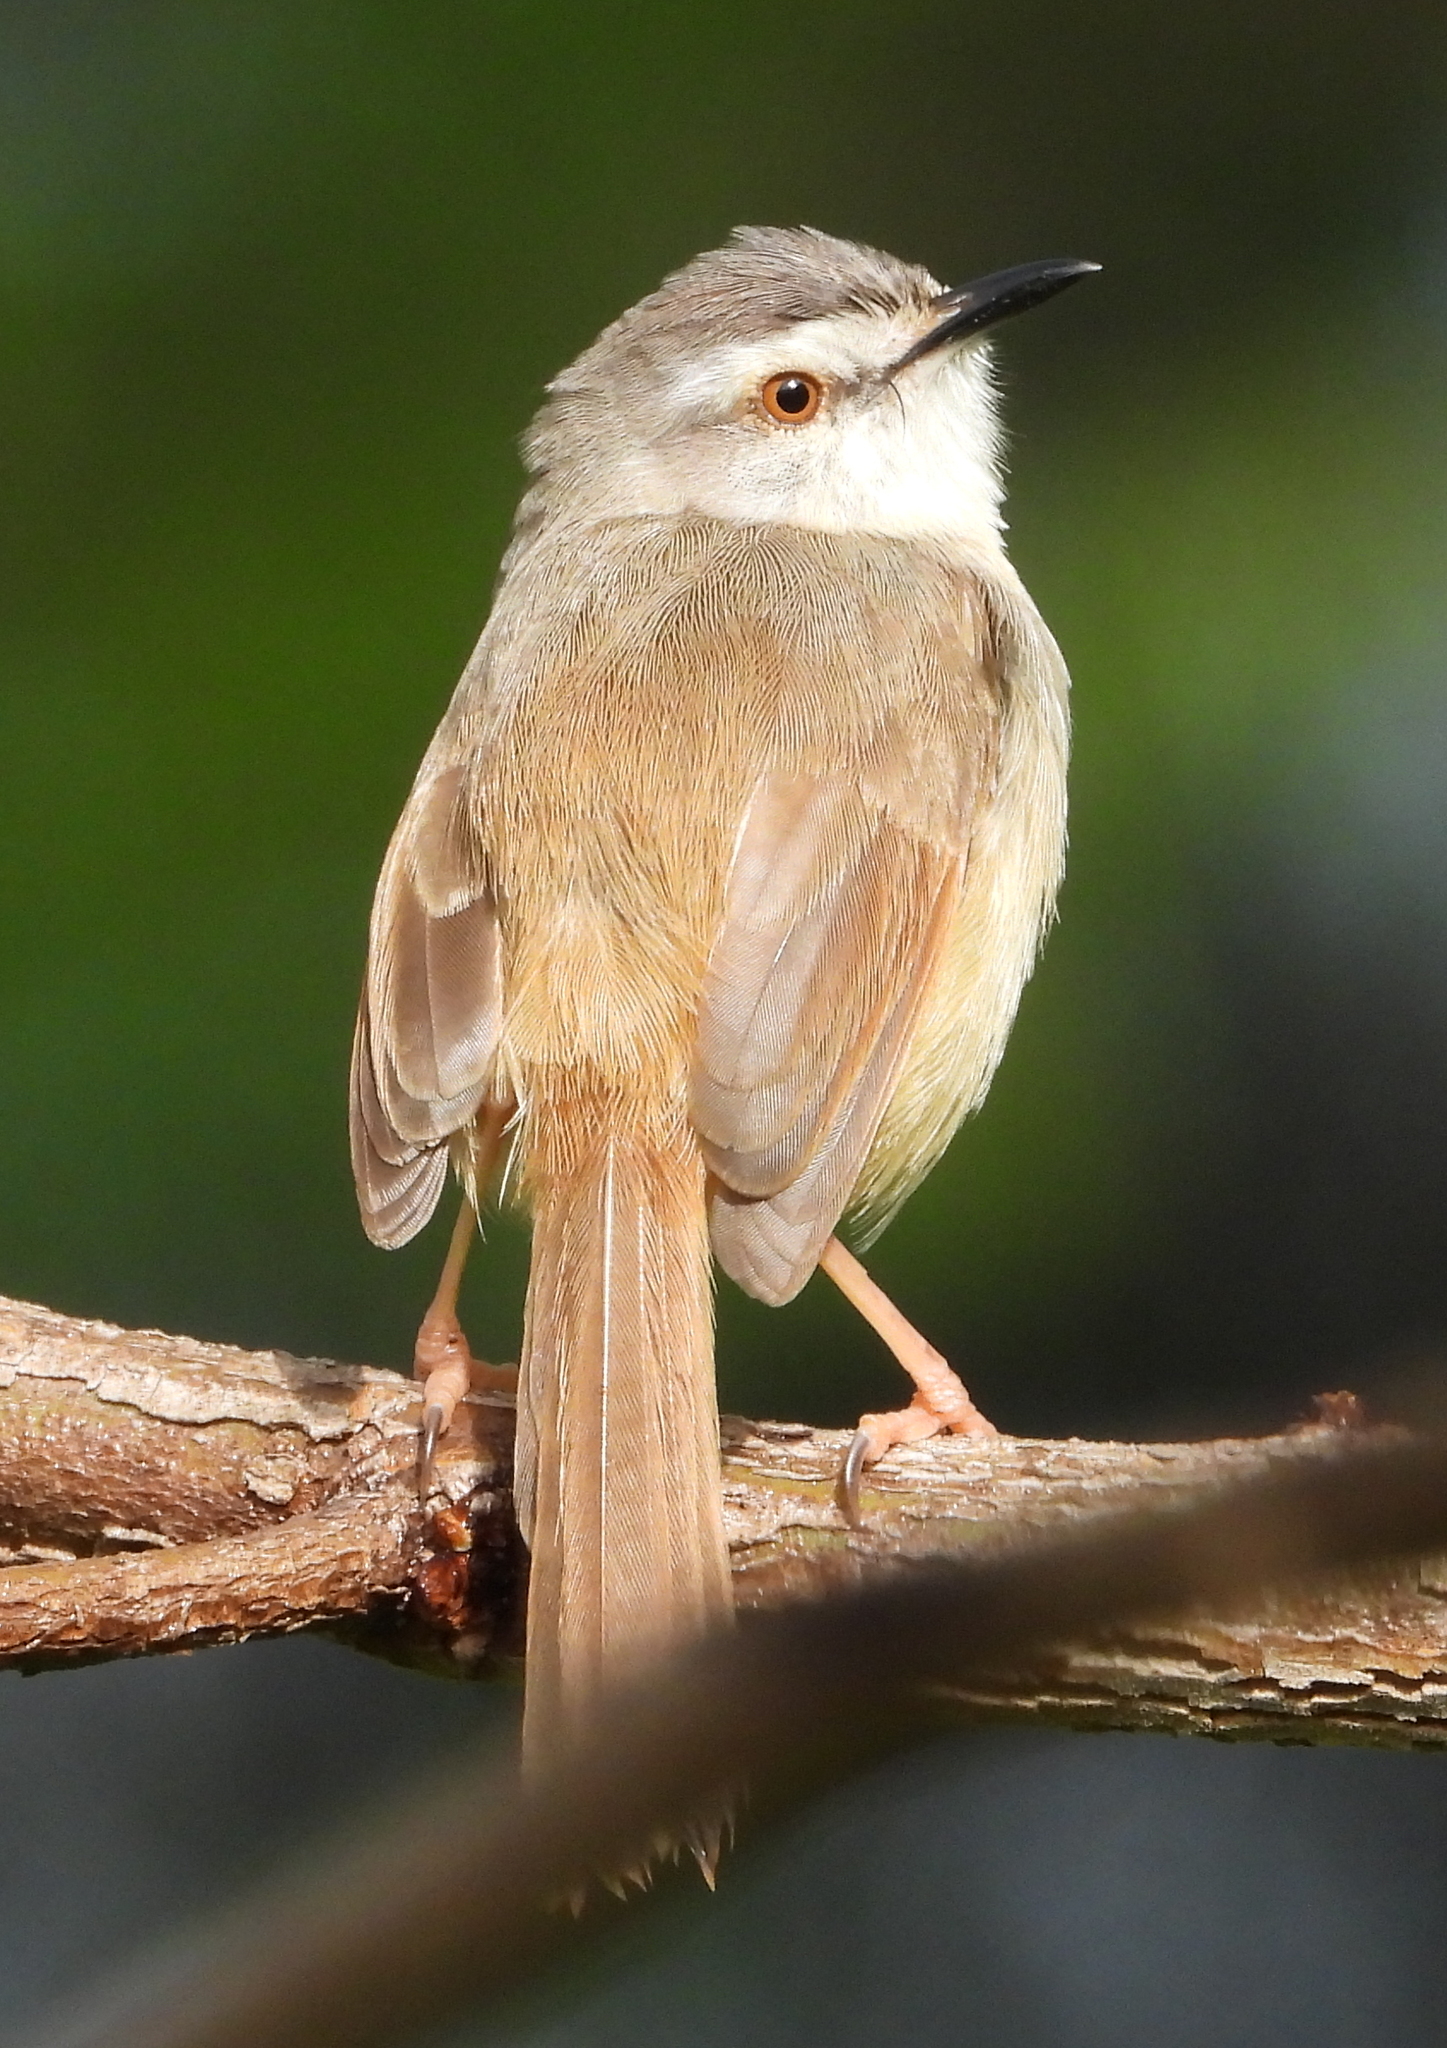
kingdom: Animalia
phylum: Chordata
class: Aves
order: Passeriformes
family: Cisticolidae
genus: Prinia
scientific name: Prinia subflava
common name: Tawny-flanked prinia
